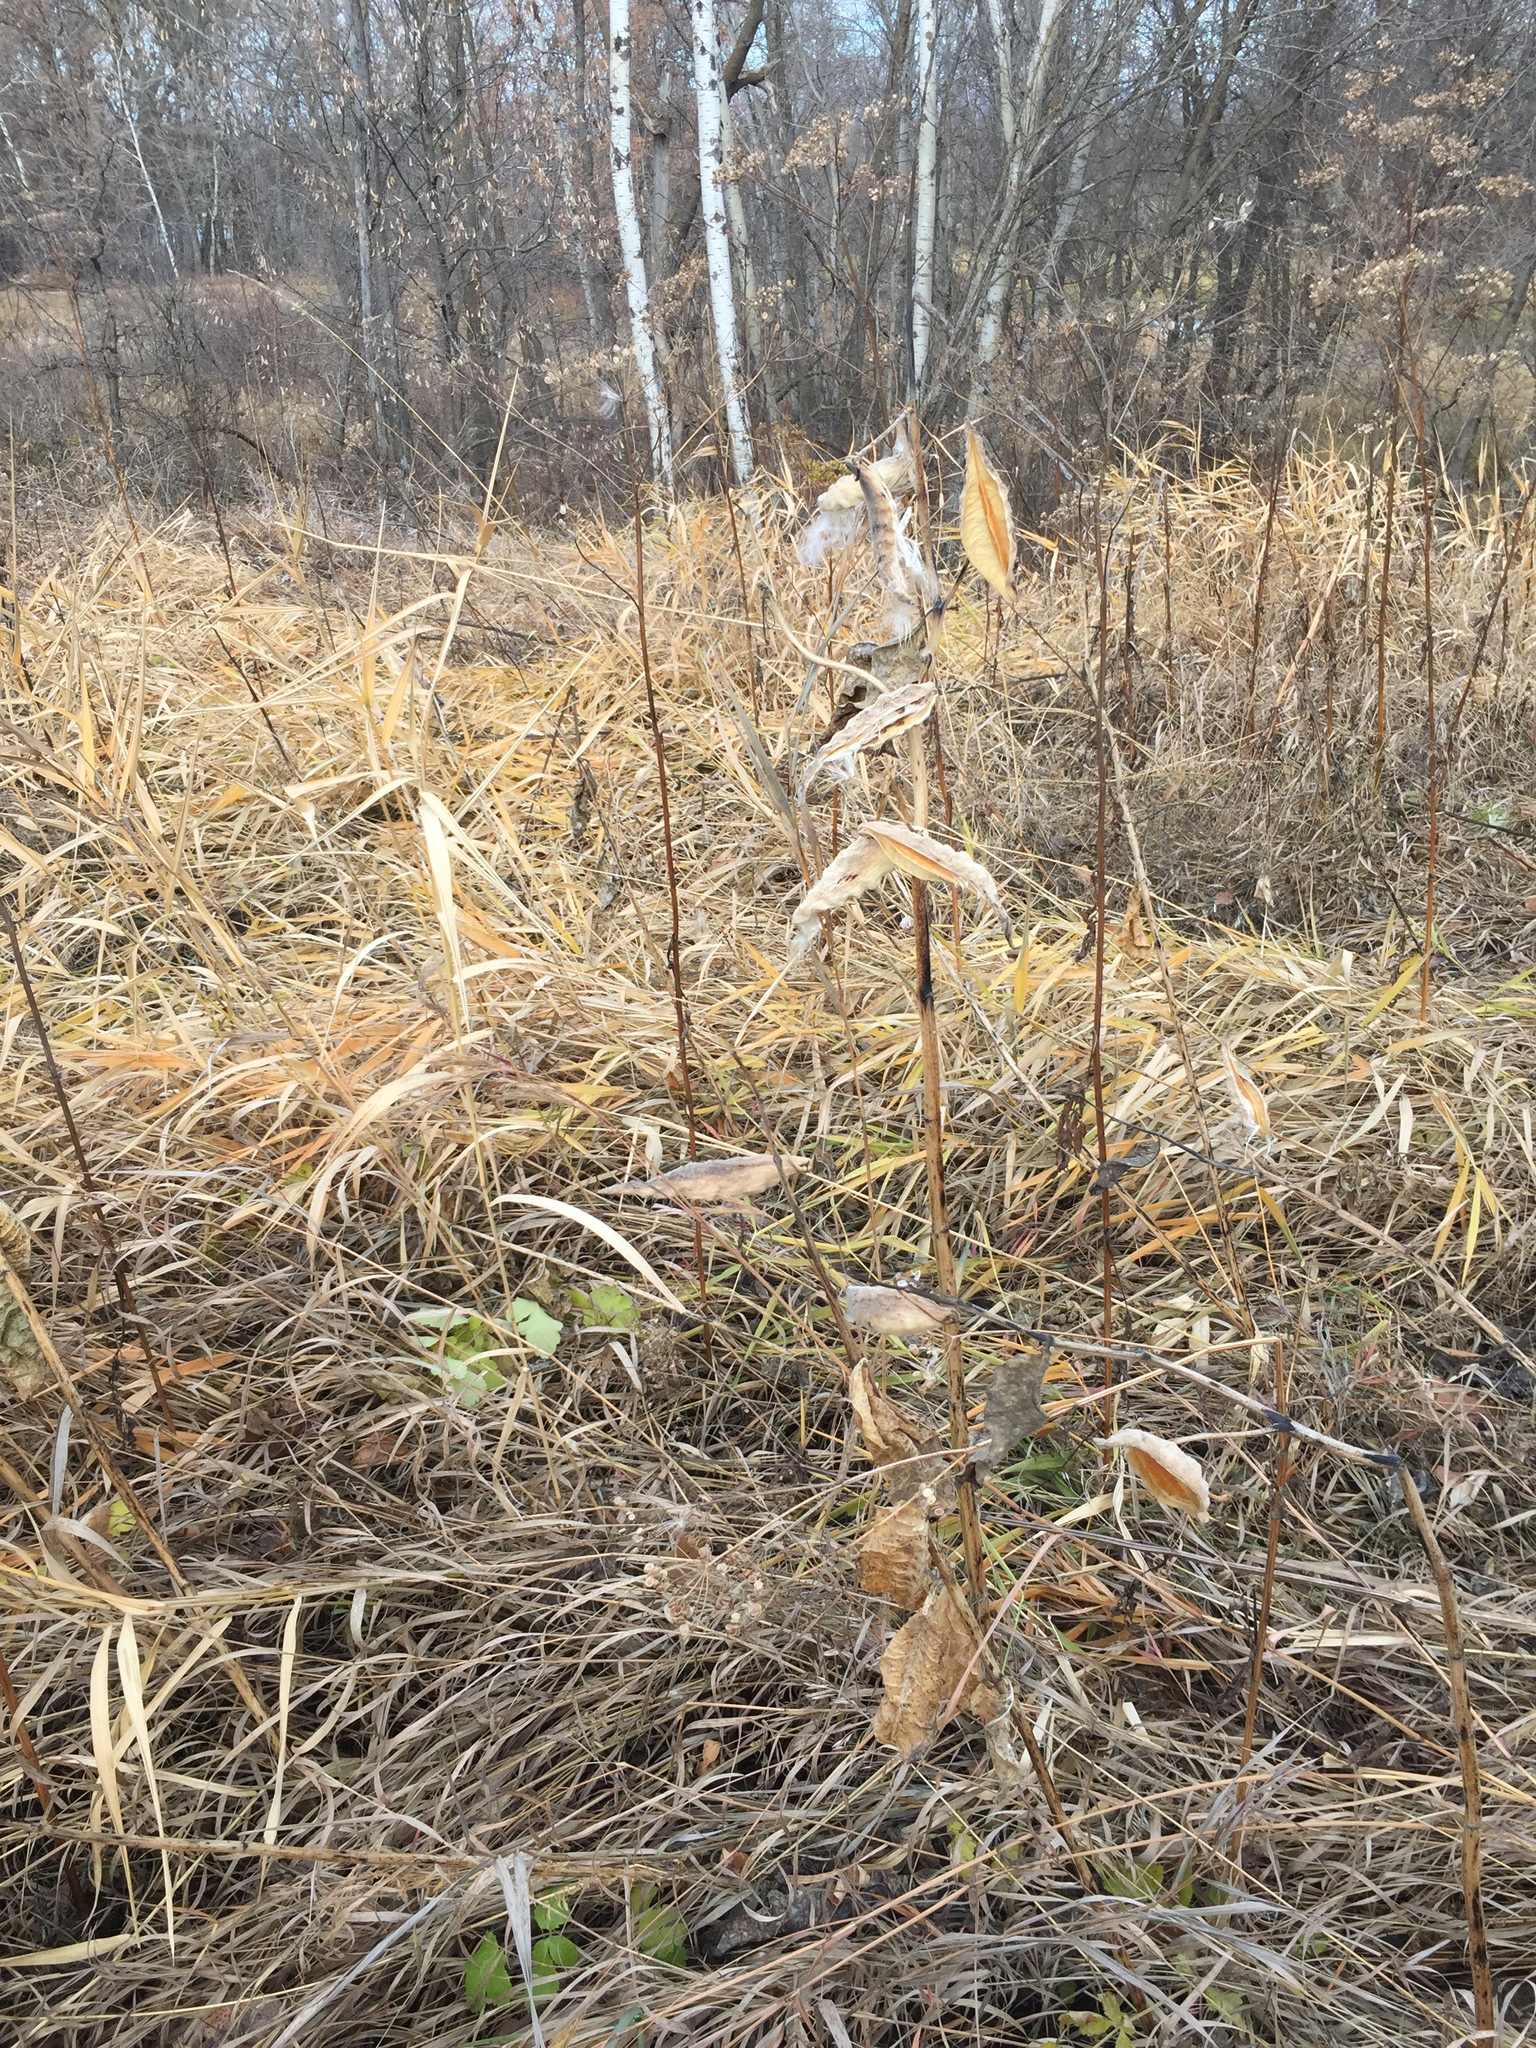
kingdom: Plantae
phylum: Tracheophyta
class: Magnoliopsida
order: Gentianales
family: Apocynaceae
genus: Asclepias
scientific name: Asclepias syriaca
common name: Common milkweed
